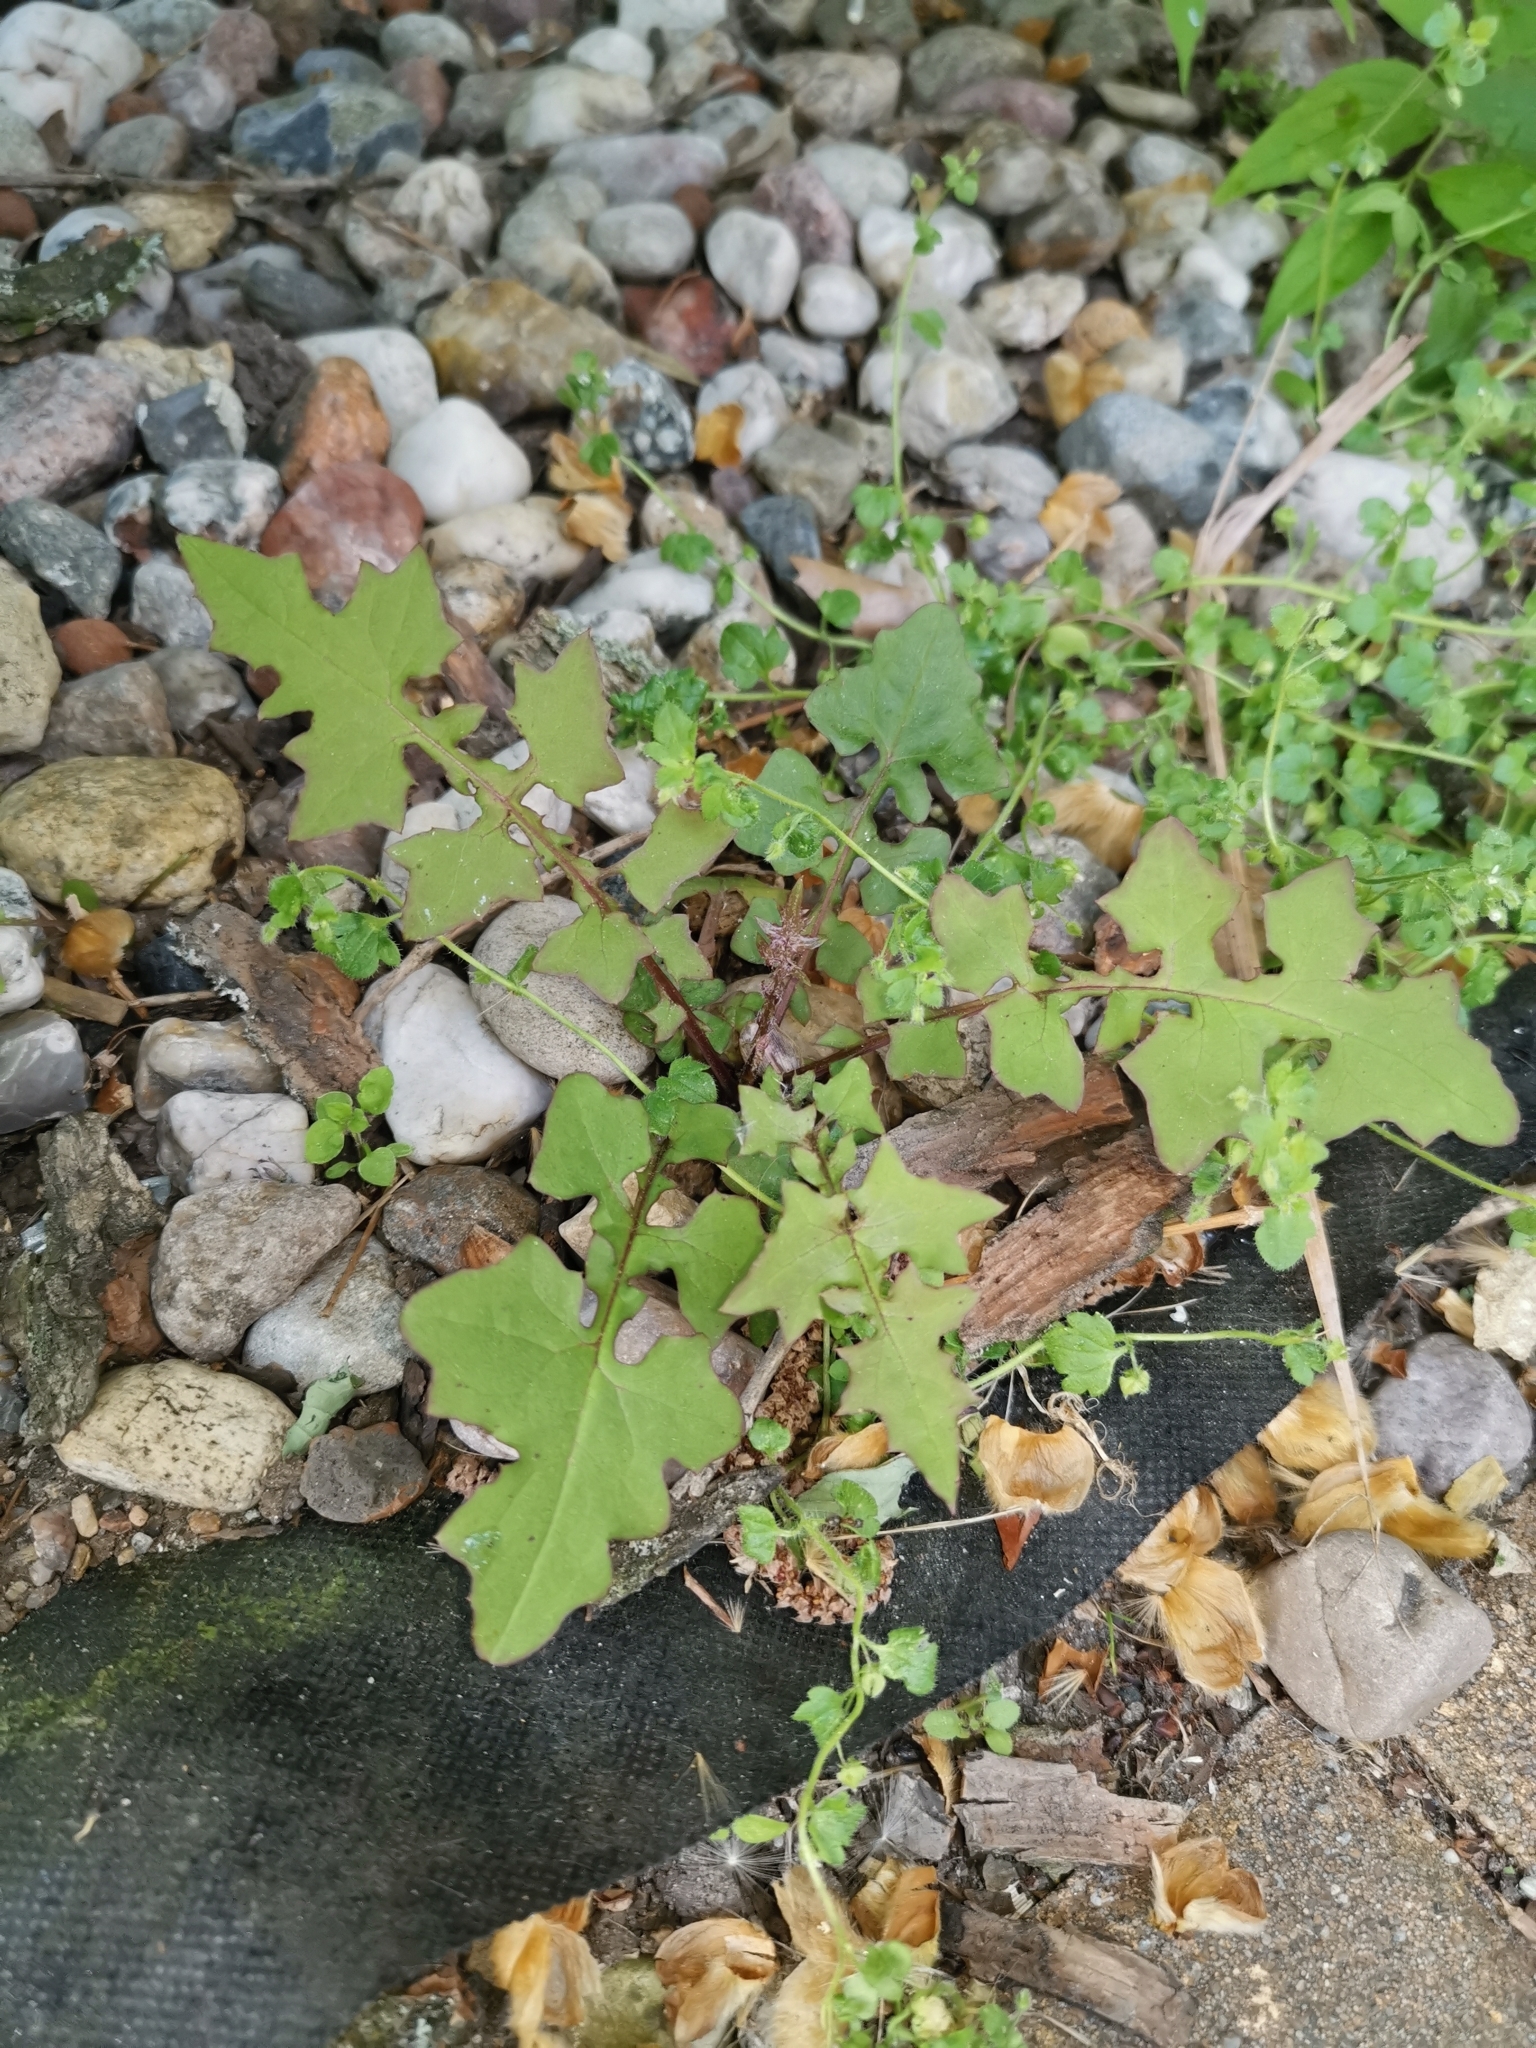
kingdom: Plantae
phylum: Tracheophyta
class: Magnoliopsida
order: Asterales
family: Asteraceae
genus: Mycelis
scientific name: Mycelis muralis
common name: Wall lettuce
